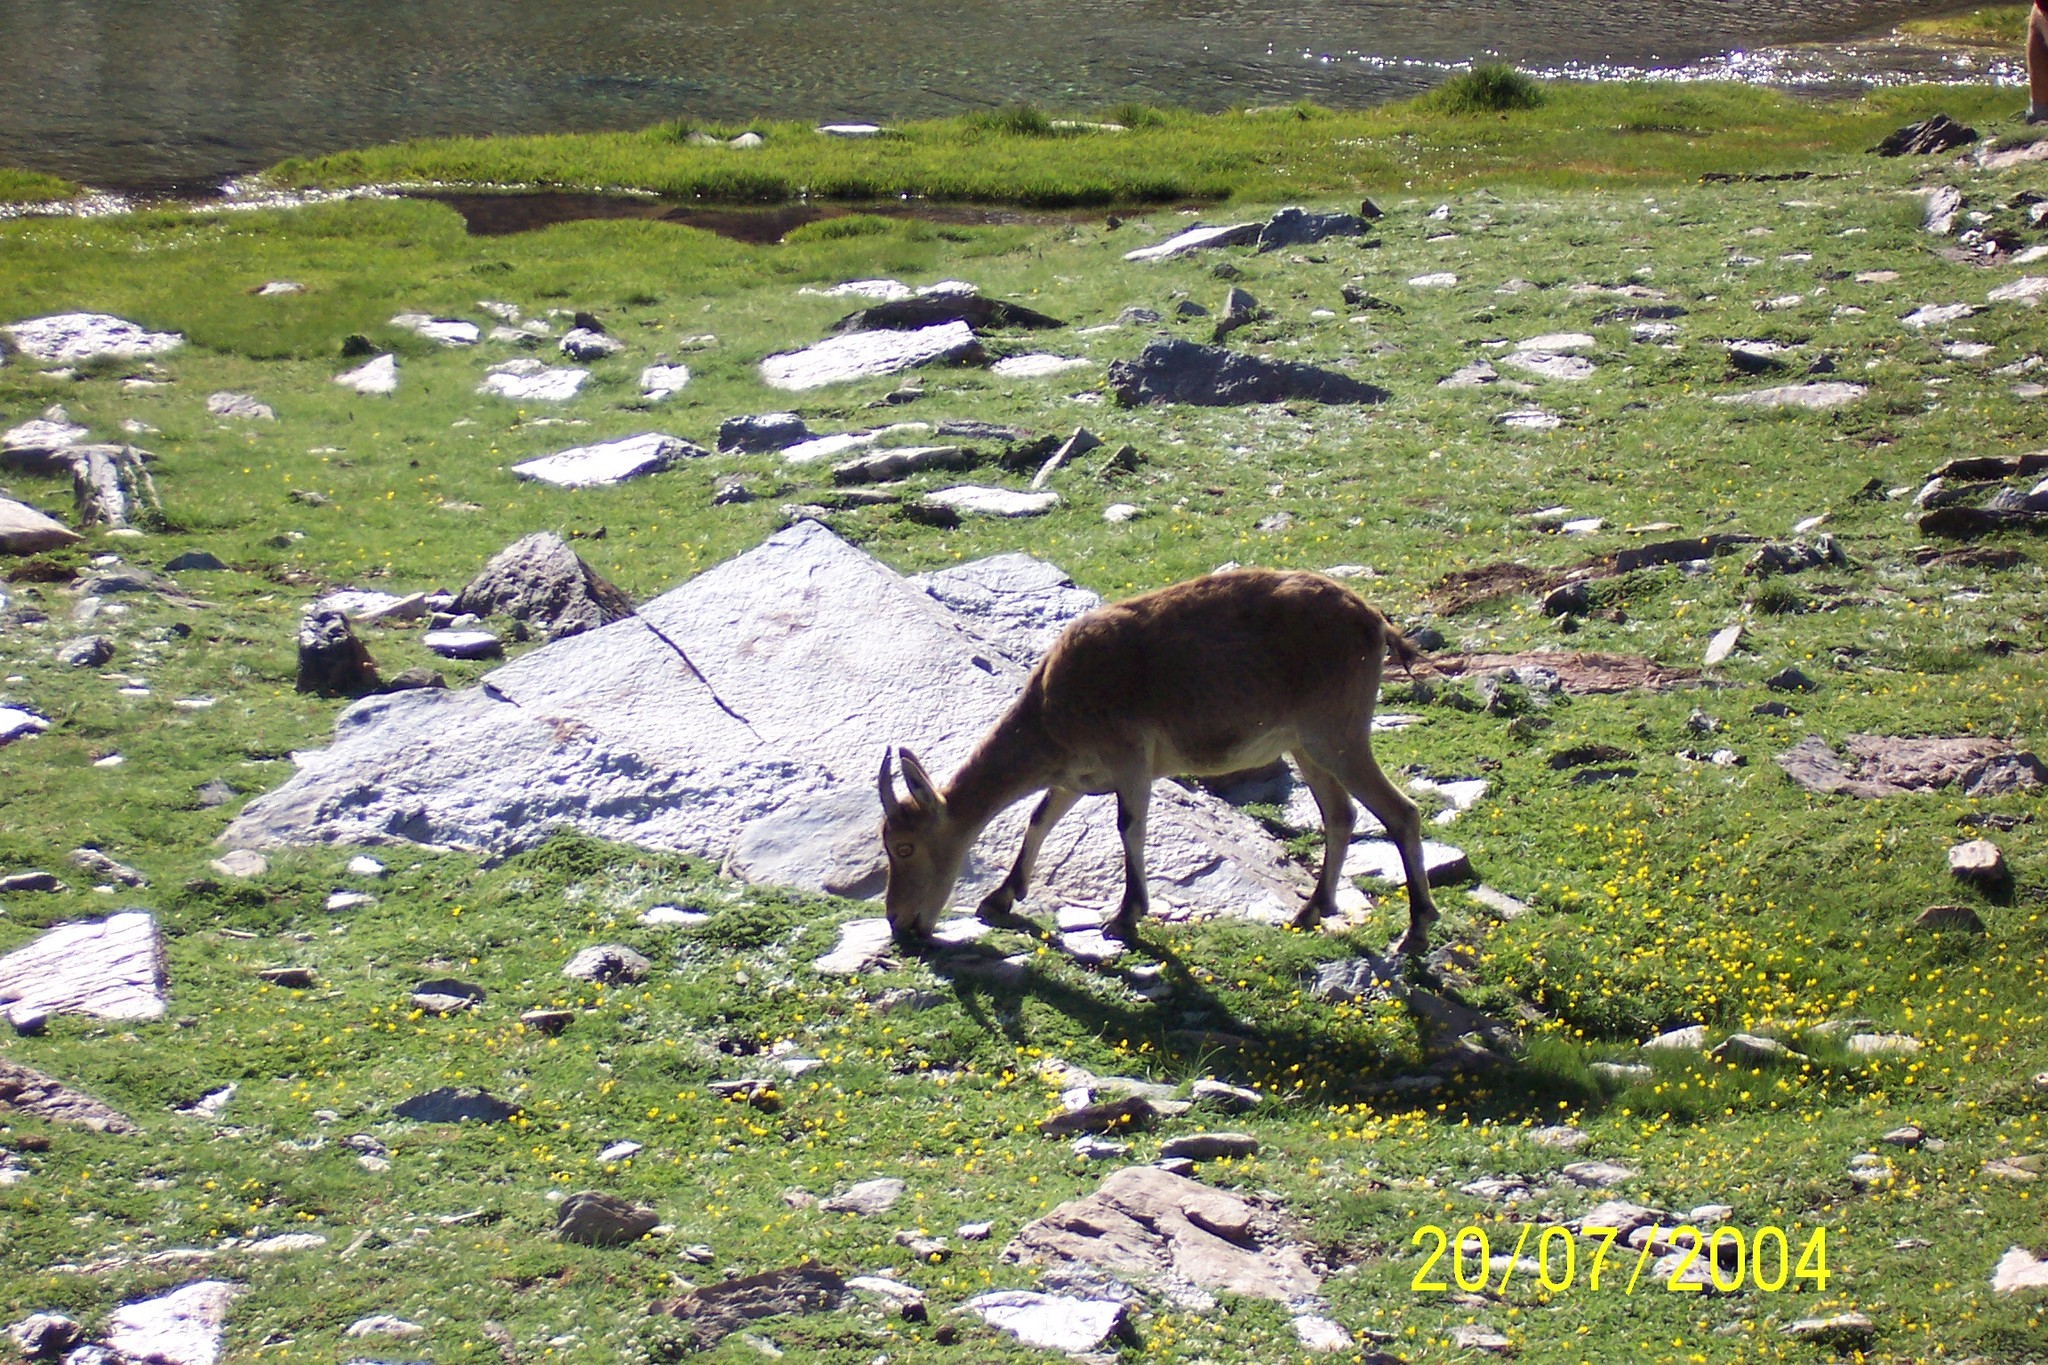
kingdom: Animalia
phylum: Chordata
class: Mammalia
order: Artiodactyla
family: Bovidae
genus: Capra
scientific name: Capra pyrenaica
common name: Spanish ibex
